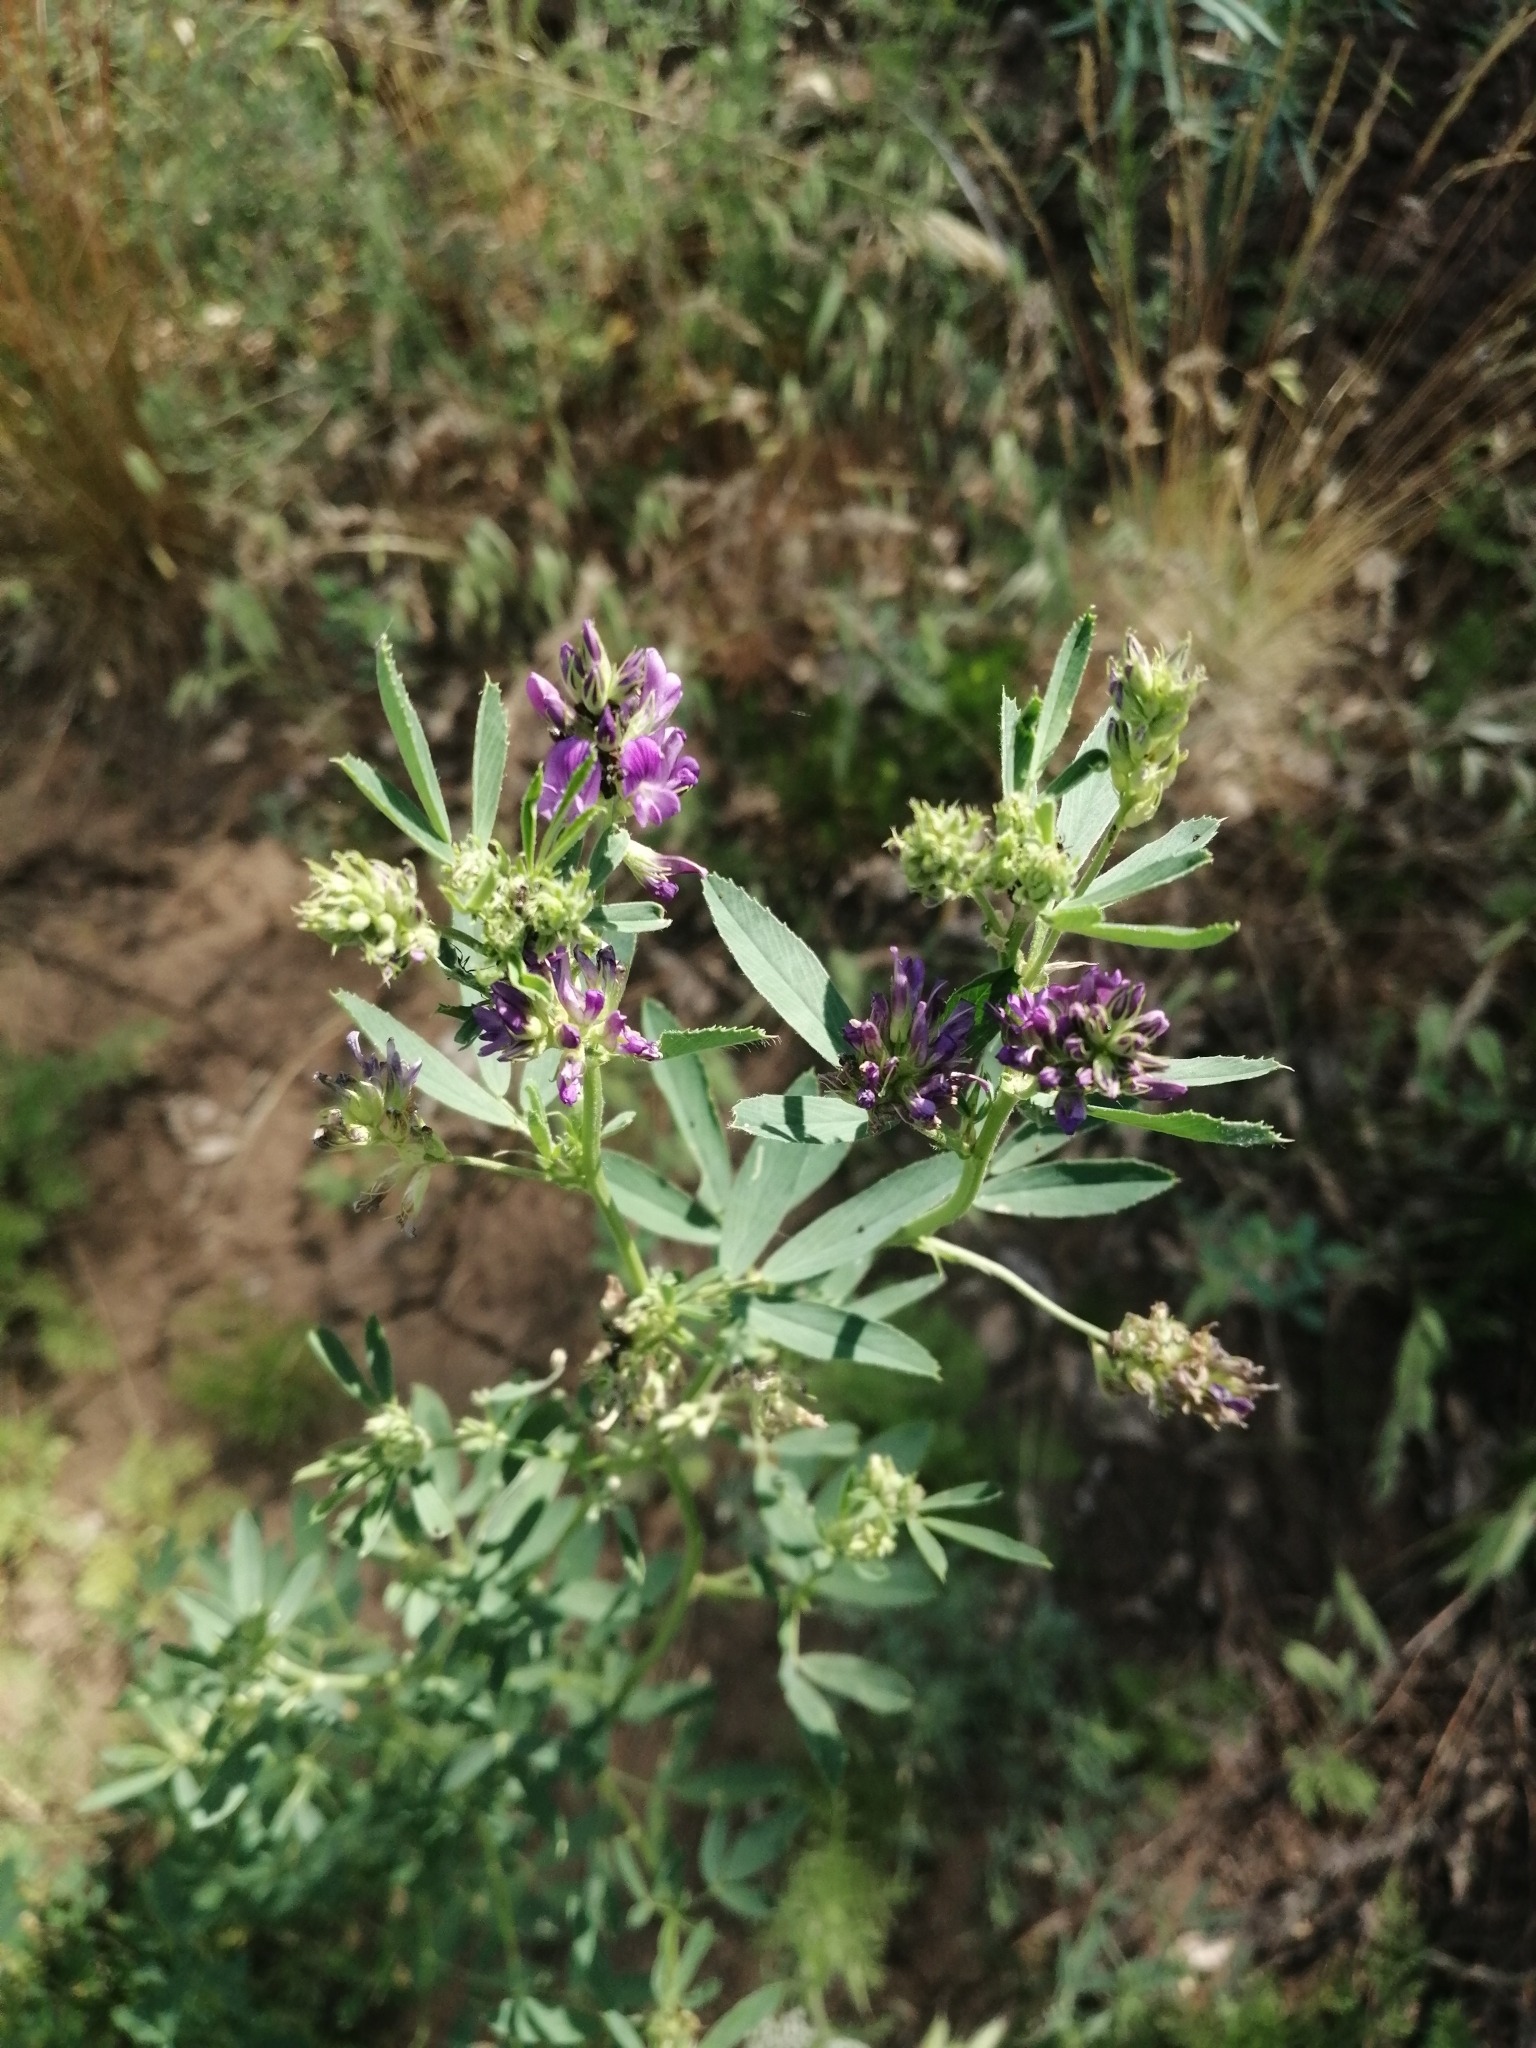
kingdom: Plantae
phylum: Tracheophyta
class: Magnoliopsida
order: Fabales
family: Fabaceae
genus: Medicago
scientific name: Medicago sativa
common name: Alfalfa
